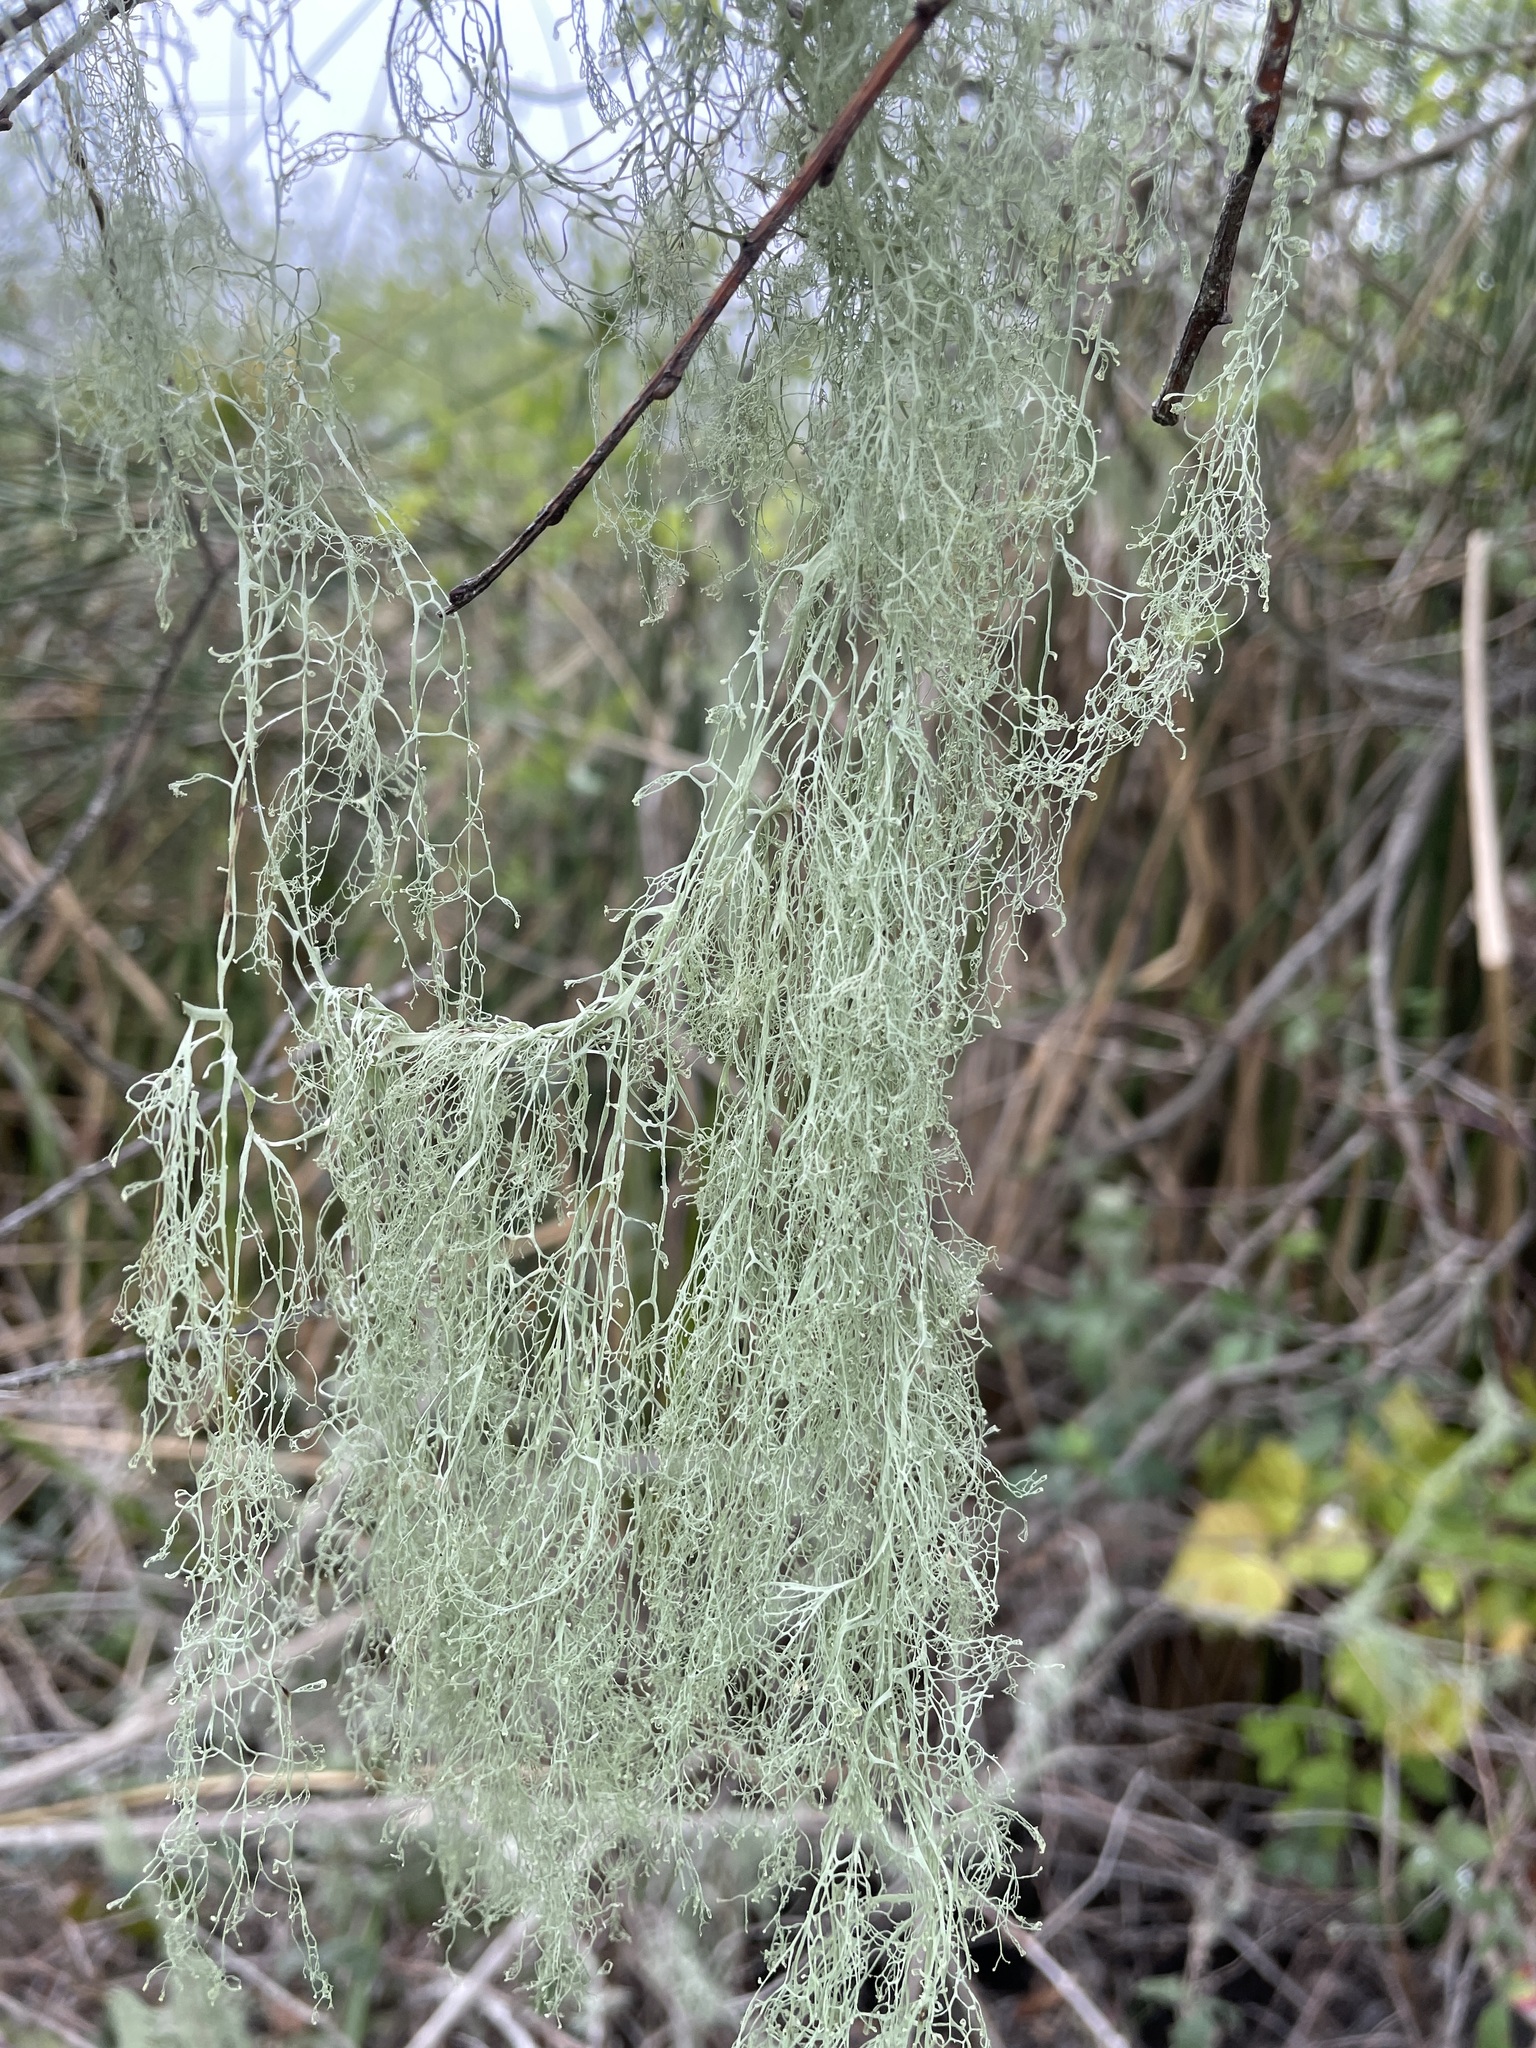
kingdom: Fungi
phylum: Ascomycota
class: Lecanoromycetes
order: Lecanorales
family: Ramalinaceae
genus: Ramalina
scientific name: Ramalina menziesii
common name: Lace lichen
